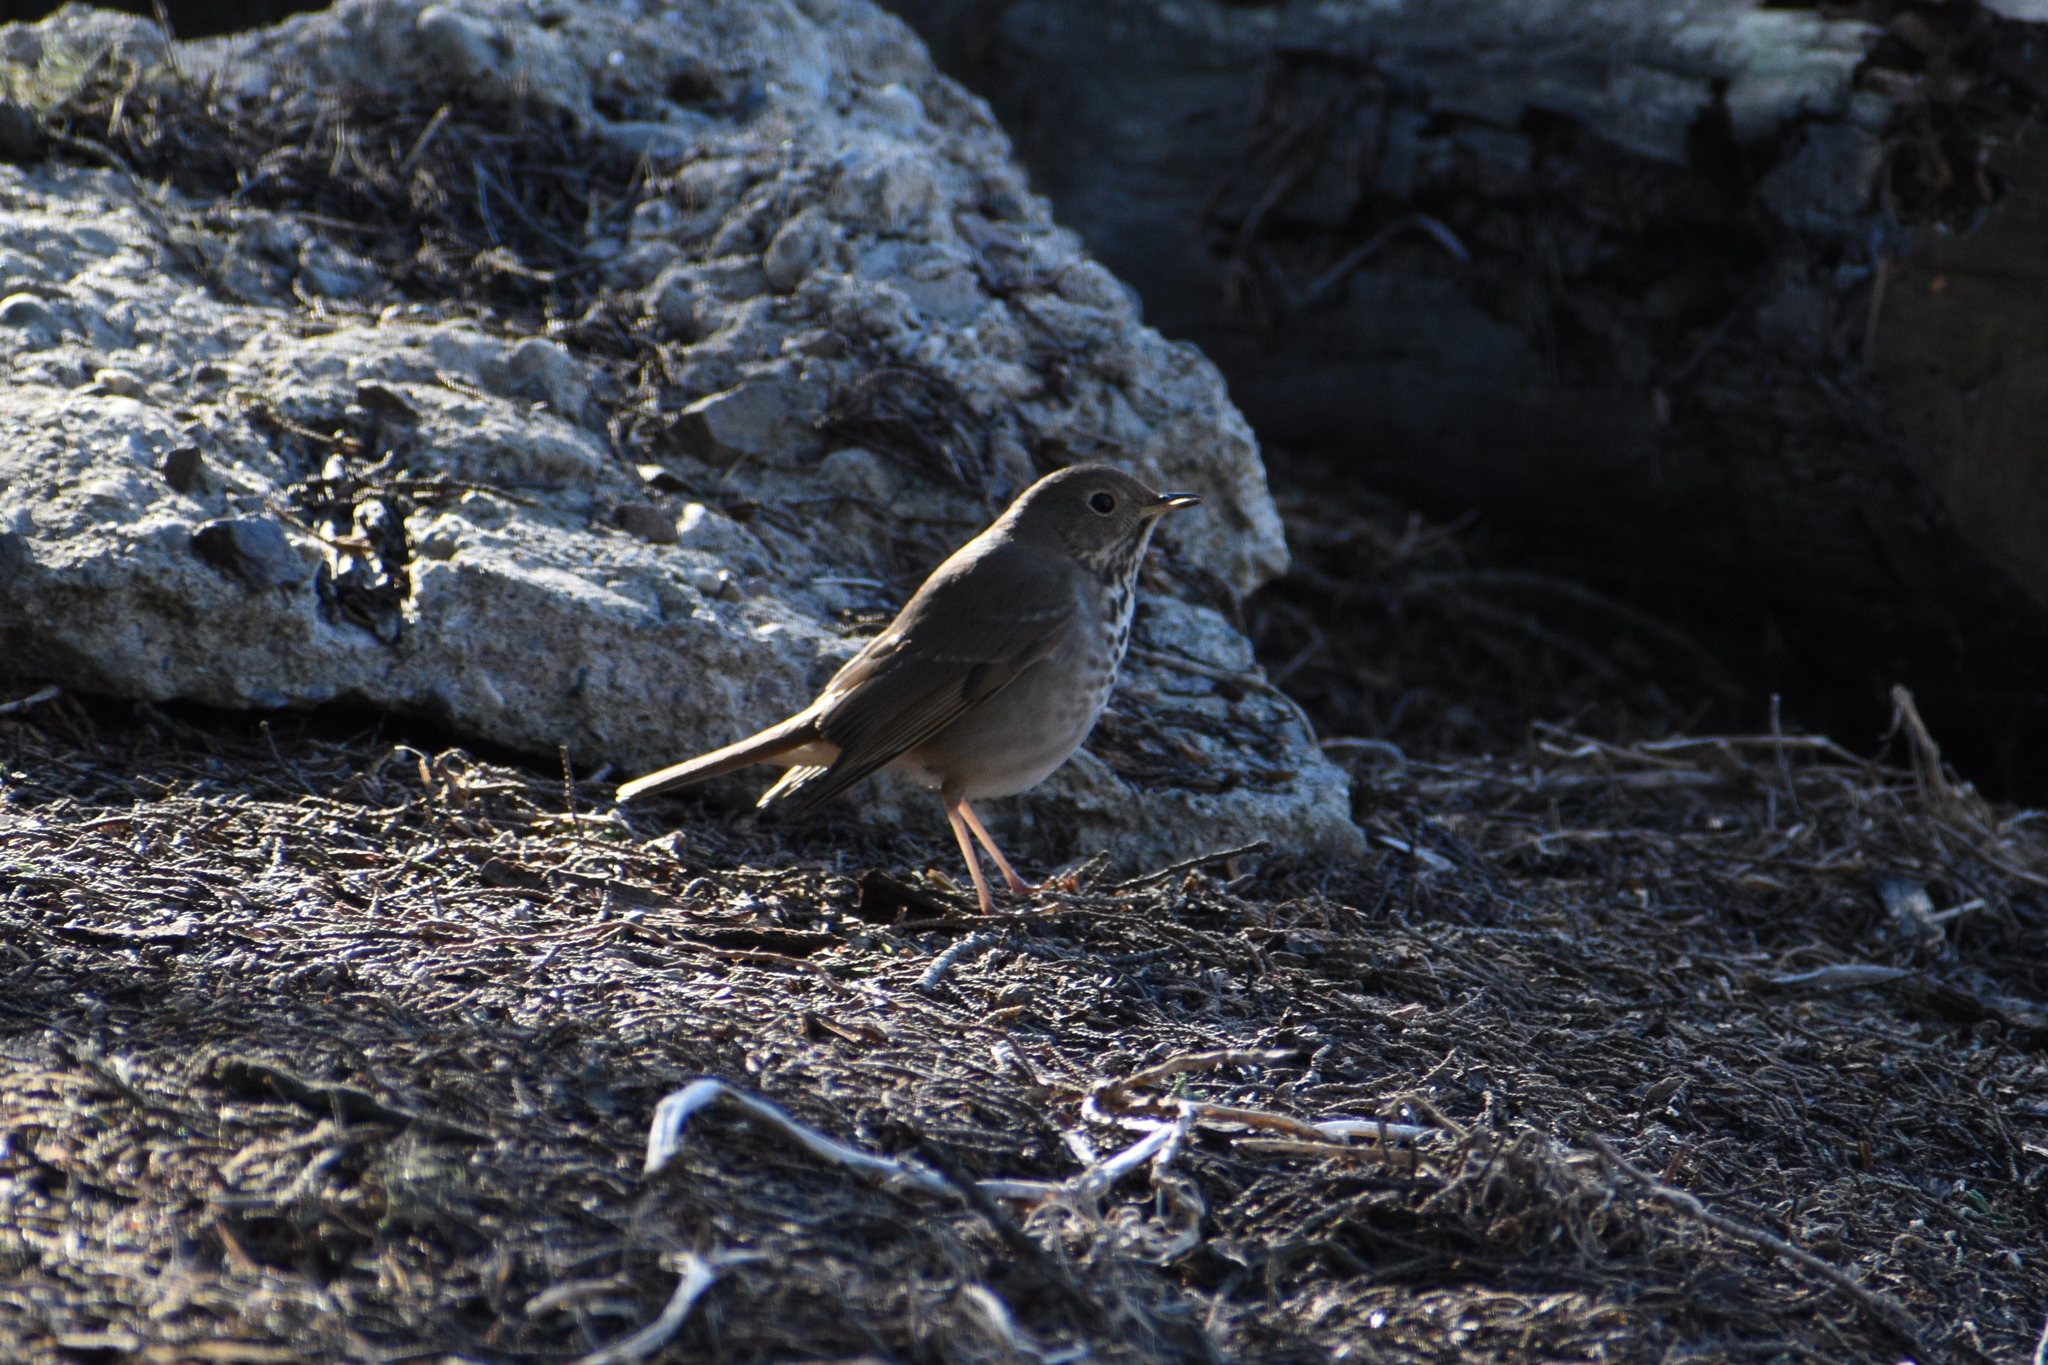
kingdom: Animalia
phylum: Chordata
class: Aves
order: Passeriformes
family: Turdidae
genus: Catharus
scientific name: Catharus guttatus
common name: Hermit thrush
